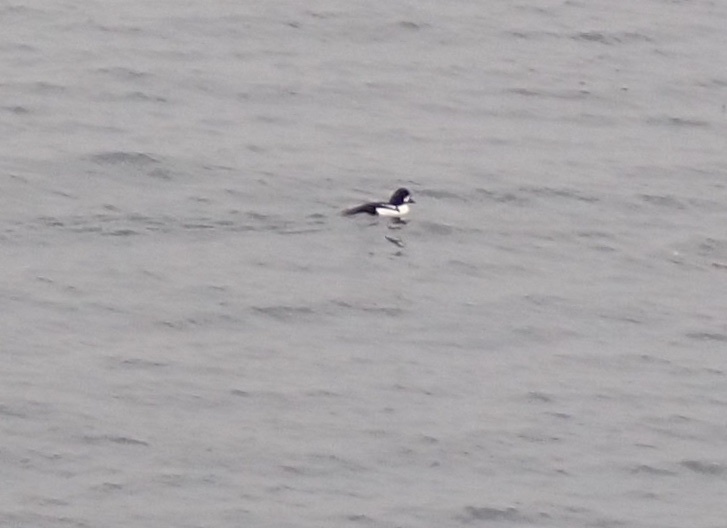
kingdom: Animalia
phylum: Chordata
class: Aves
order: Anseriformes
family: Anatidae
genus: Bucephala
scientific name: Bucephala islandica
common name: Barrow's goldeneye
